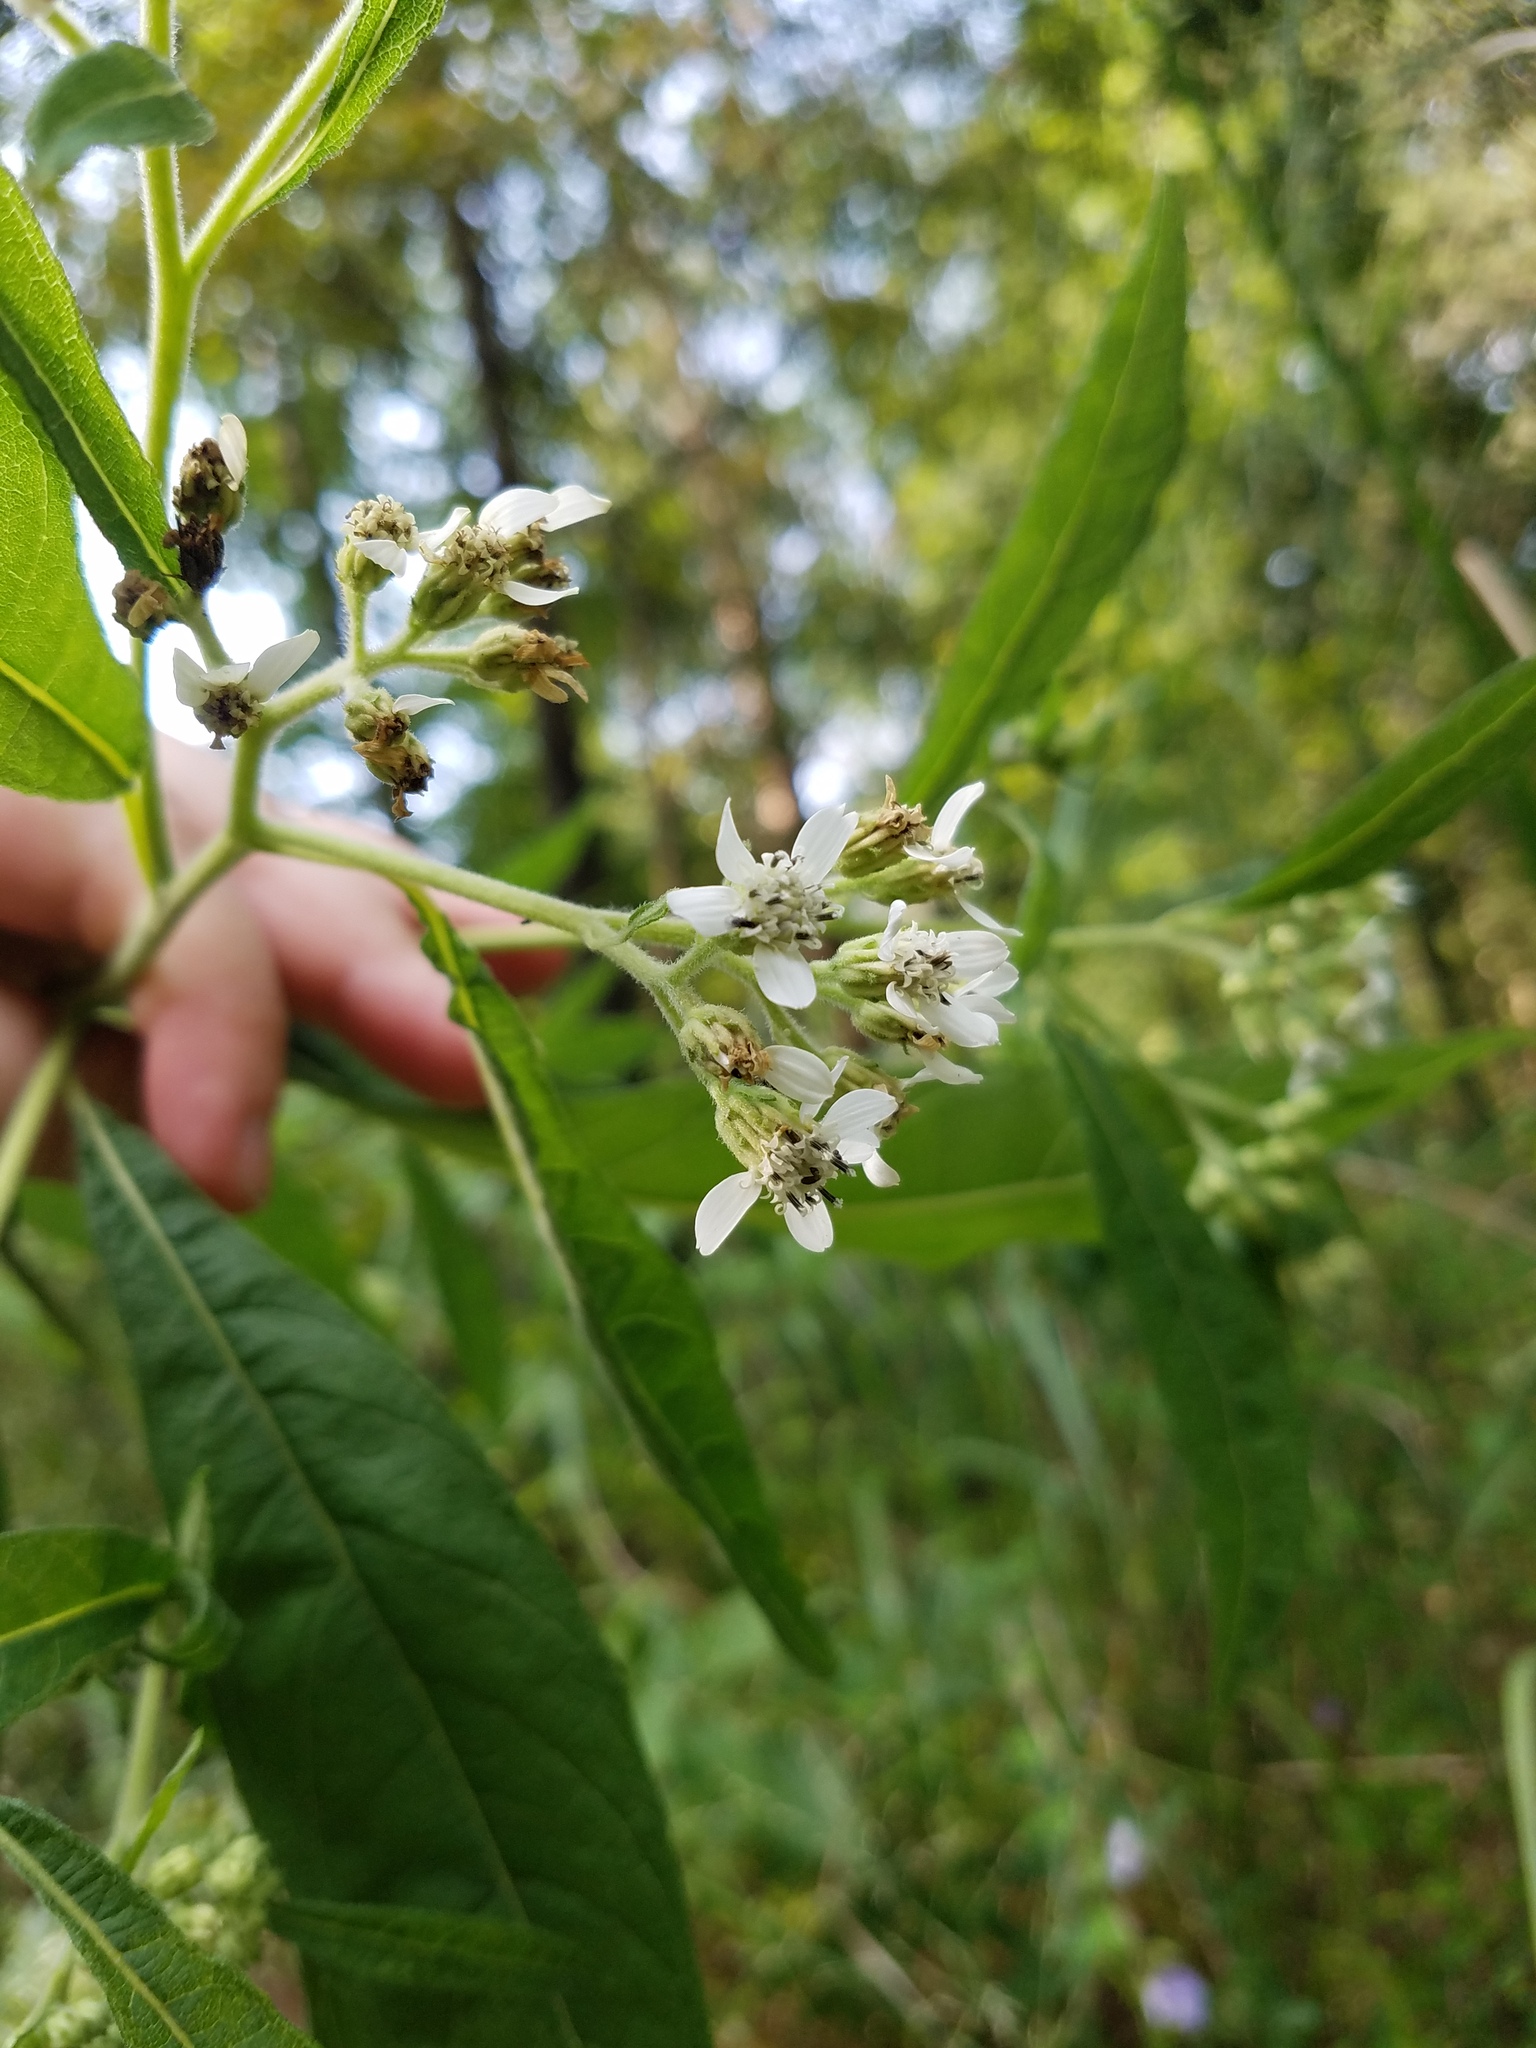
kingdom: Plantae
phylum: Tracheophyta
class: Magnoliopsida
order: Asterales
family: Asteraceae
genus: Verbesina
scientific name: Verbesina virginica
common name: Frostweed
